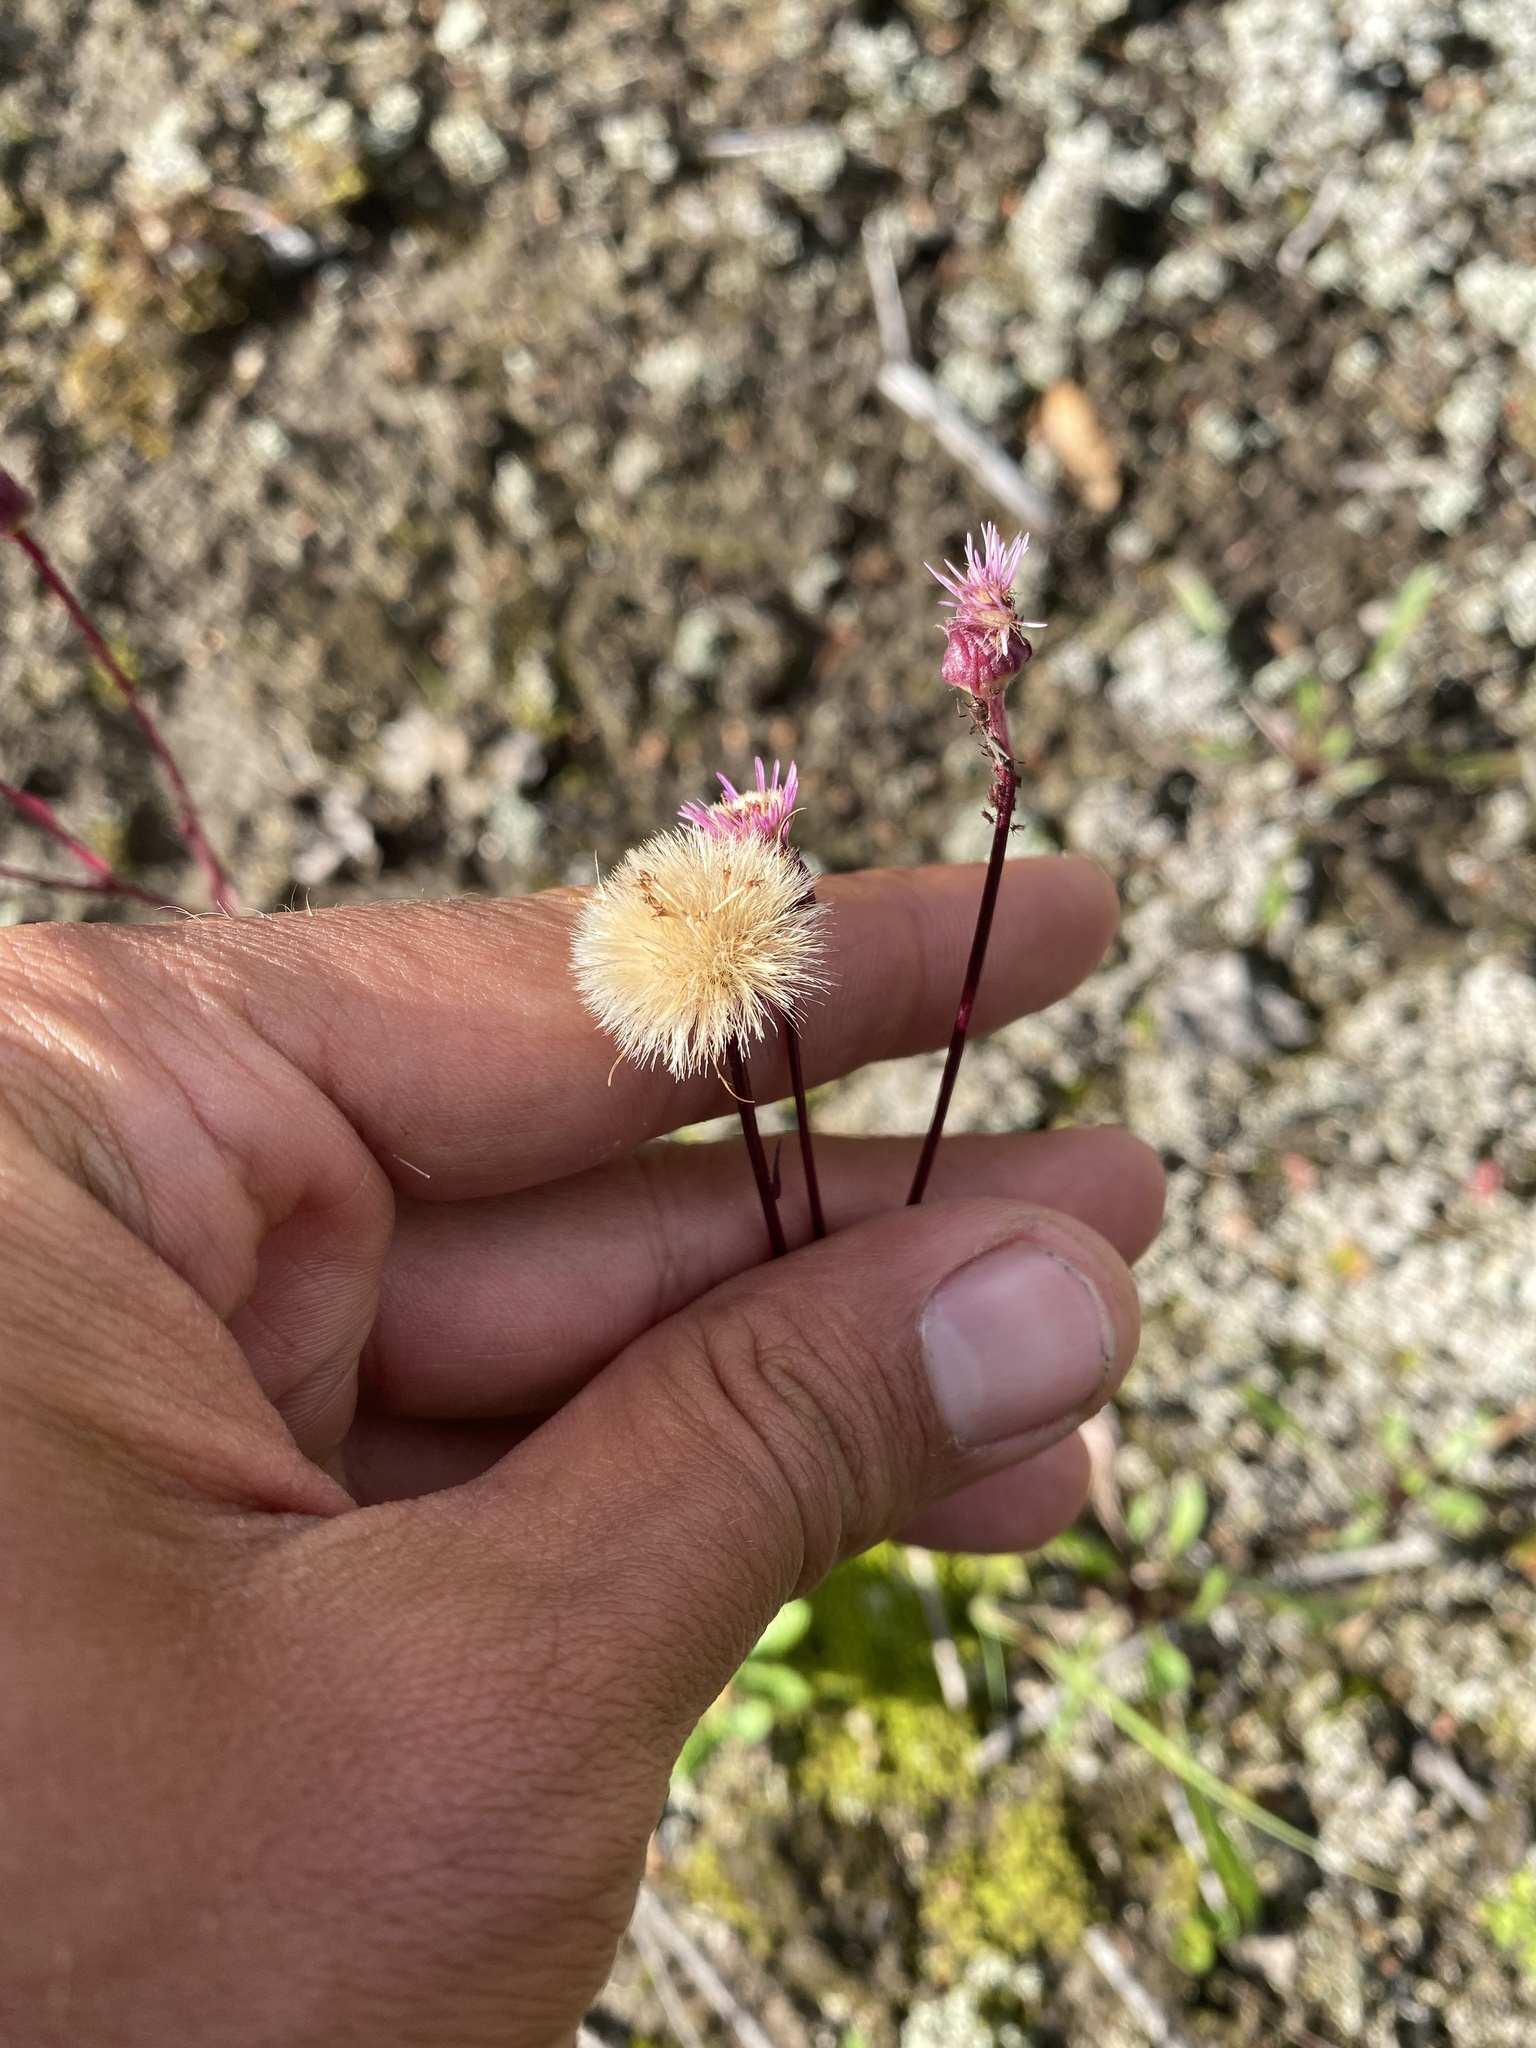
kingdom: Plantae
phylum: Tracheophyta
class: Magnoliopsida
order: Asterales
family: Asteraceae
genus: Erigeron
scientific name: Erigeron acris
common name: Blue fleabane
